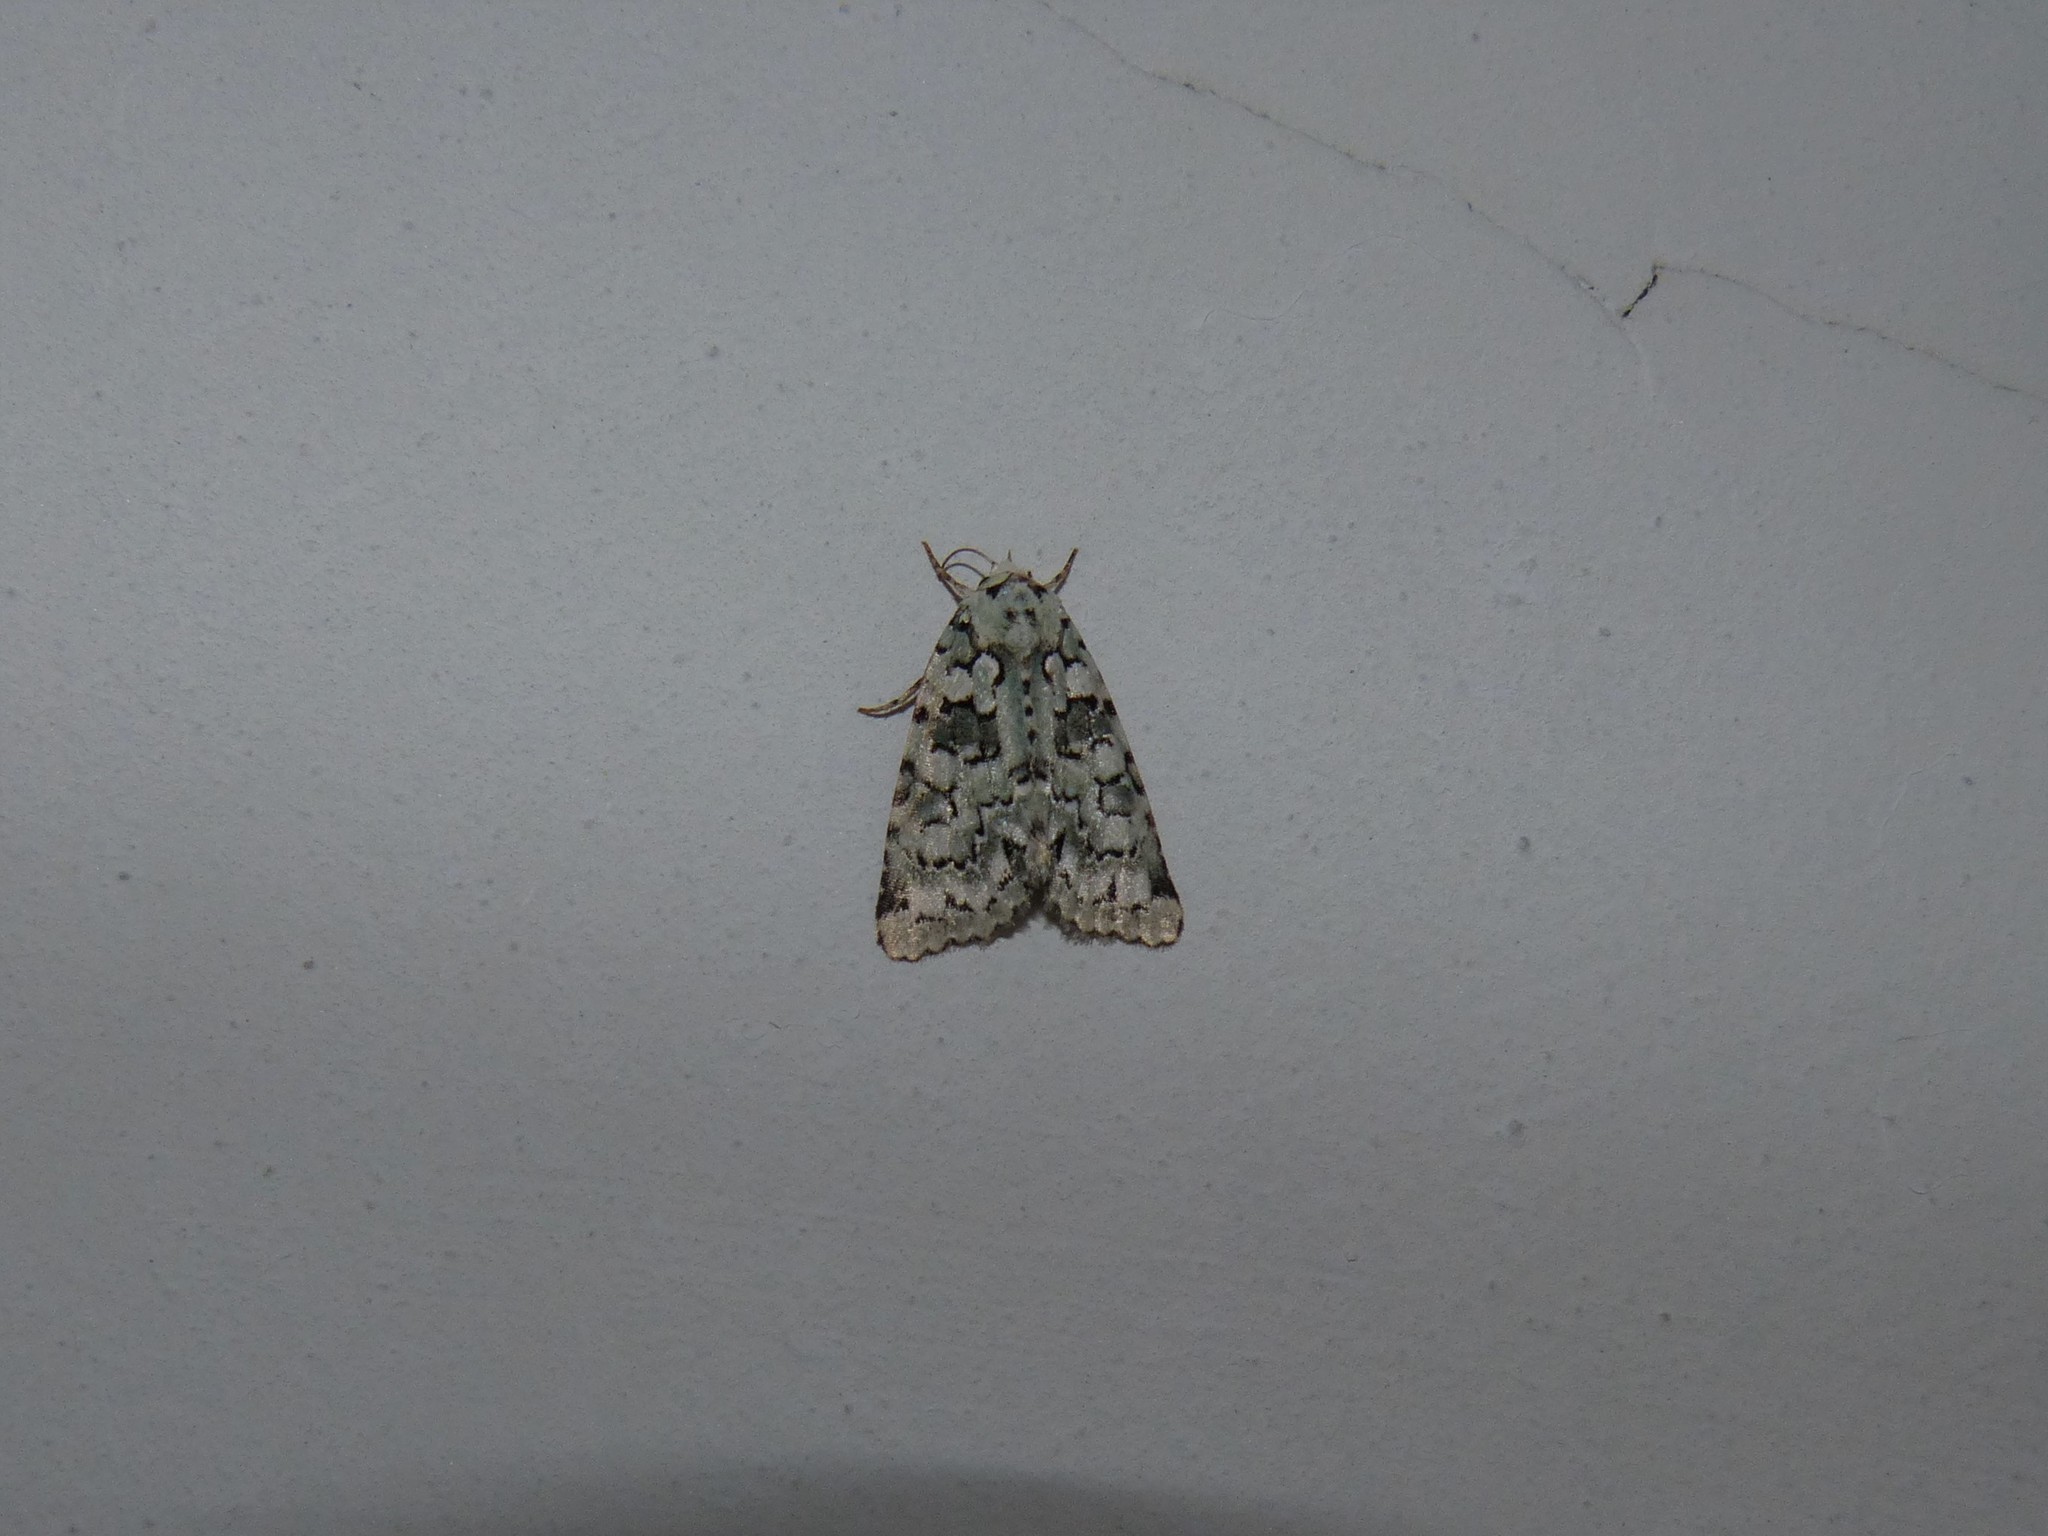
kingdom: Animalia
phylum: Arthropoda
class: Insecta
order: Lepidoptera
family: Noctuidae
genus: Nyctobrya
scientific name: Nyctobrya muralis
